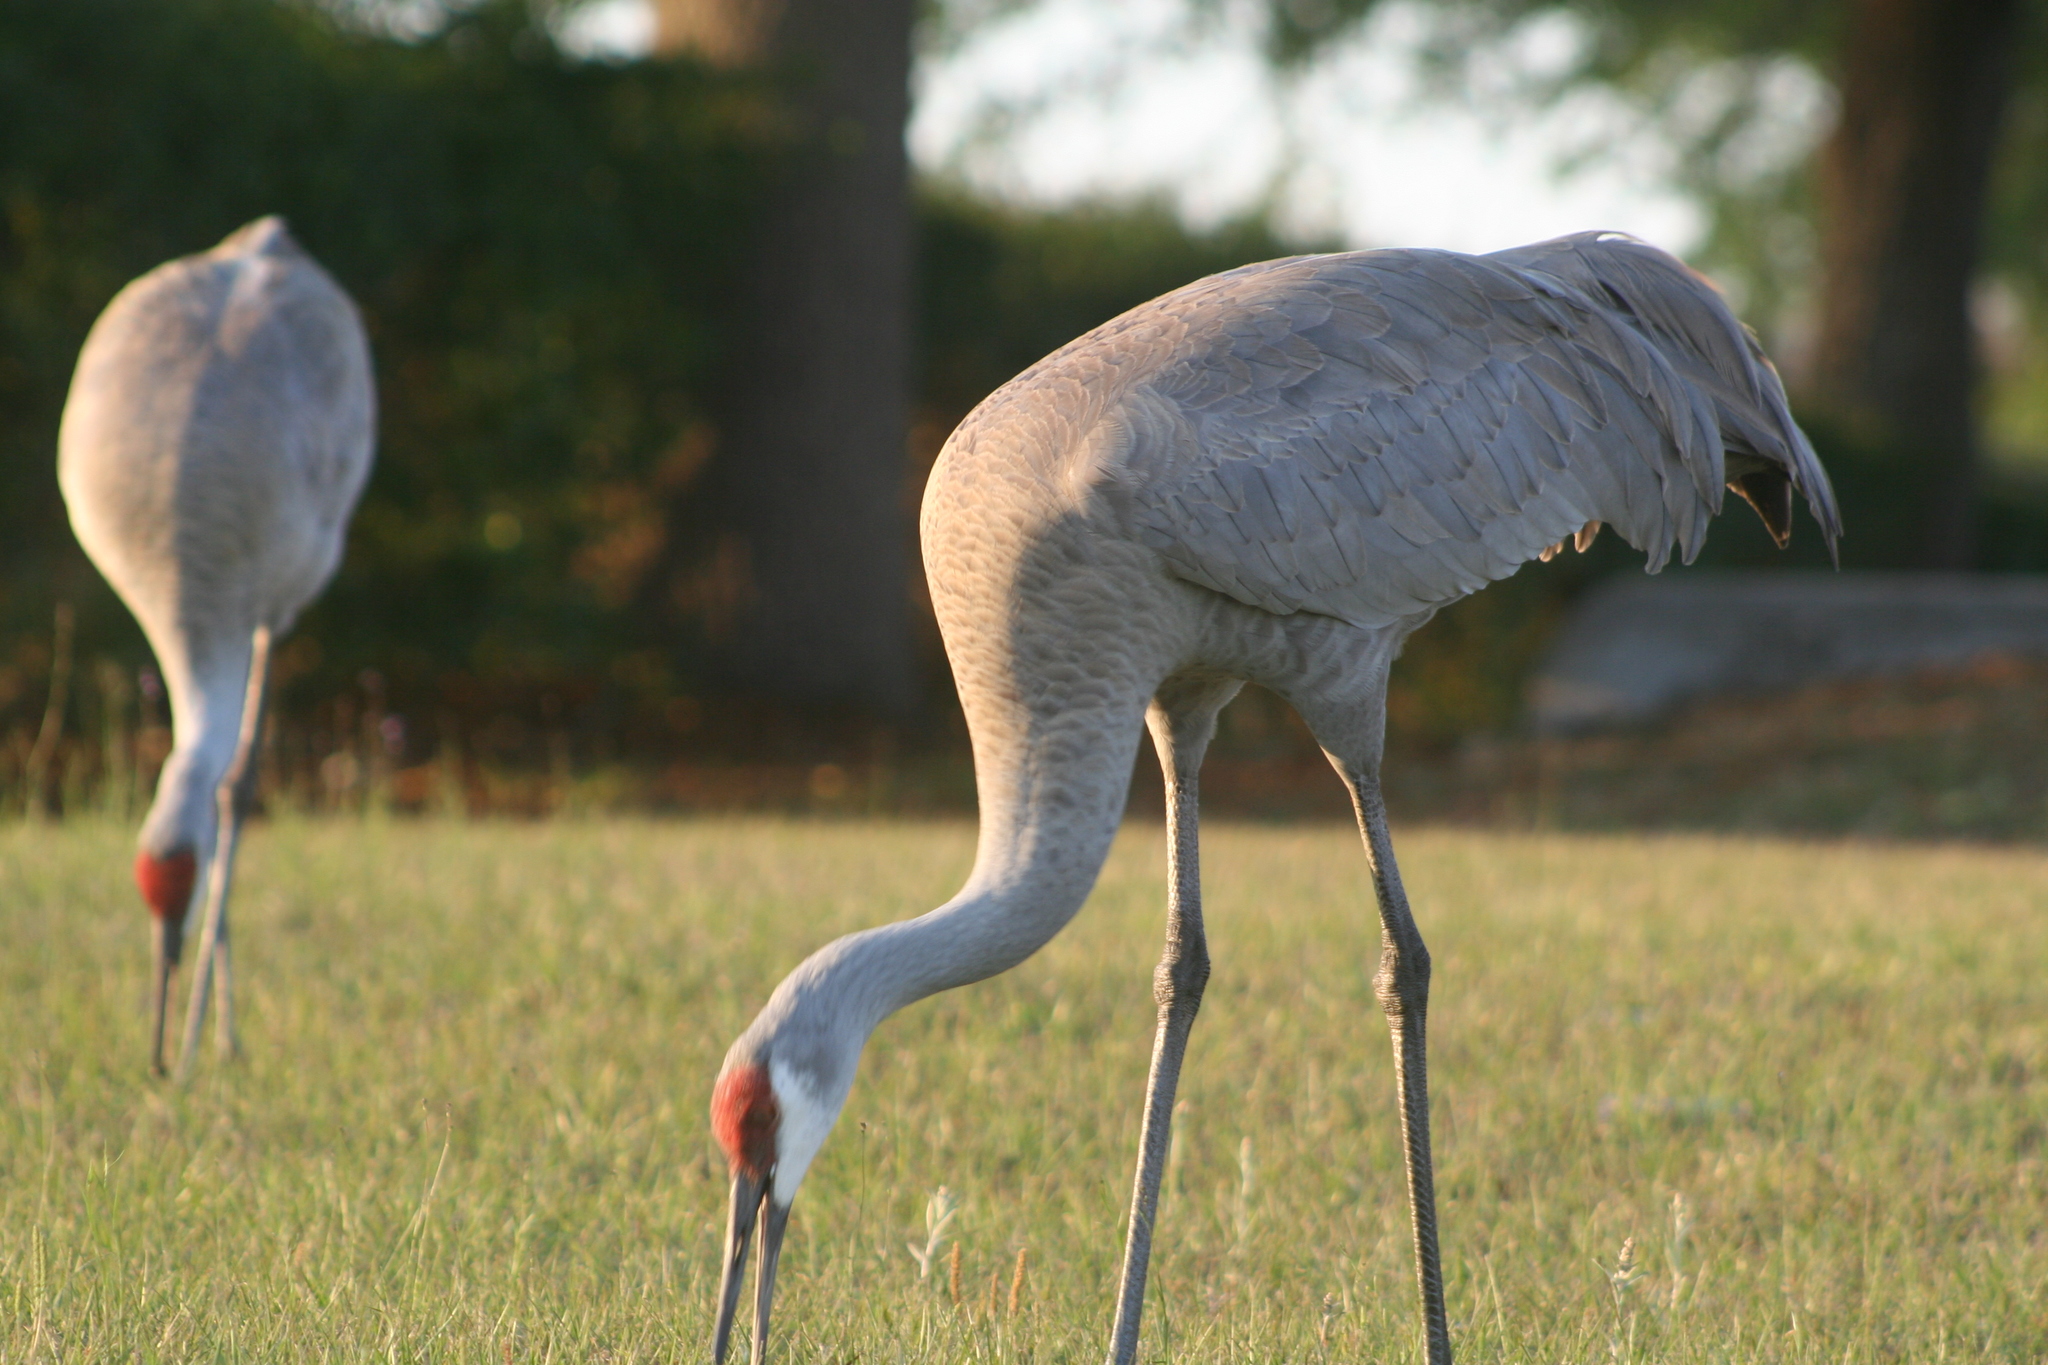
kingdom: Animalia
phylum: Chordata
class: Aves
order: Gruiformes
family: Gruidae
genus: Grus
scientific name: Grus canadensis
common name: Sandhill crane
